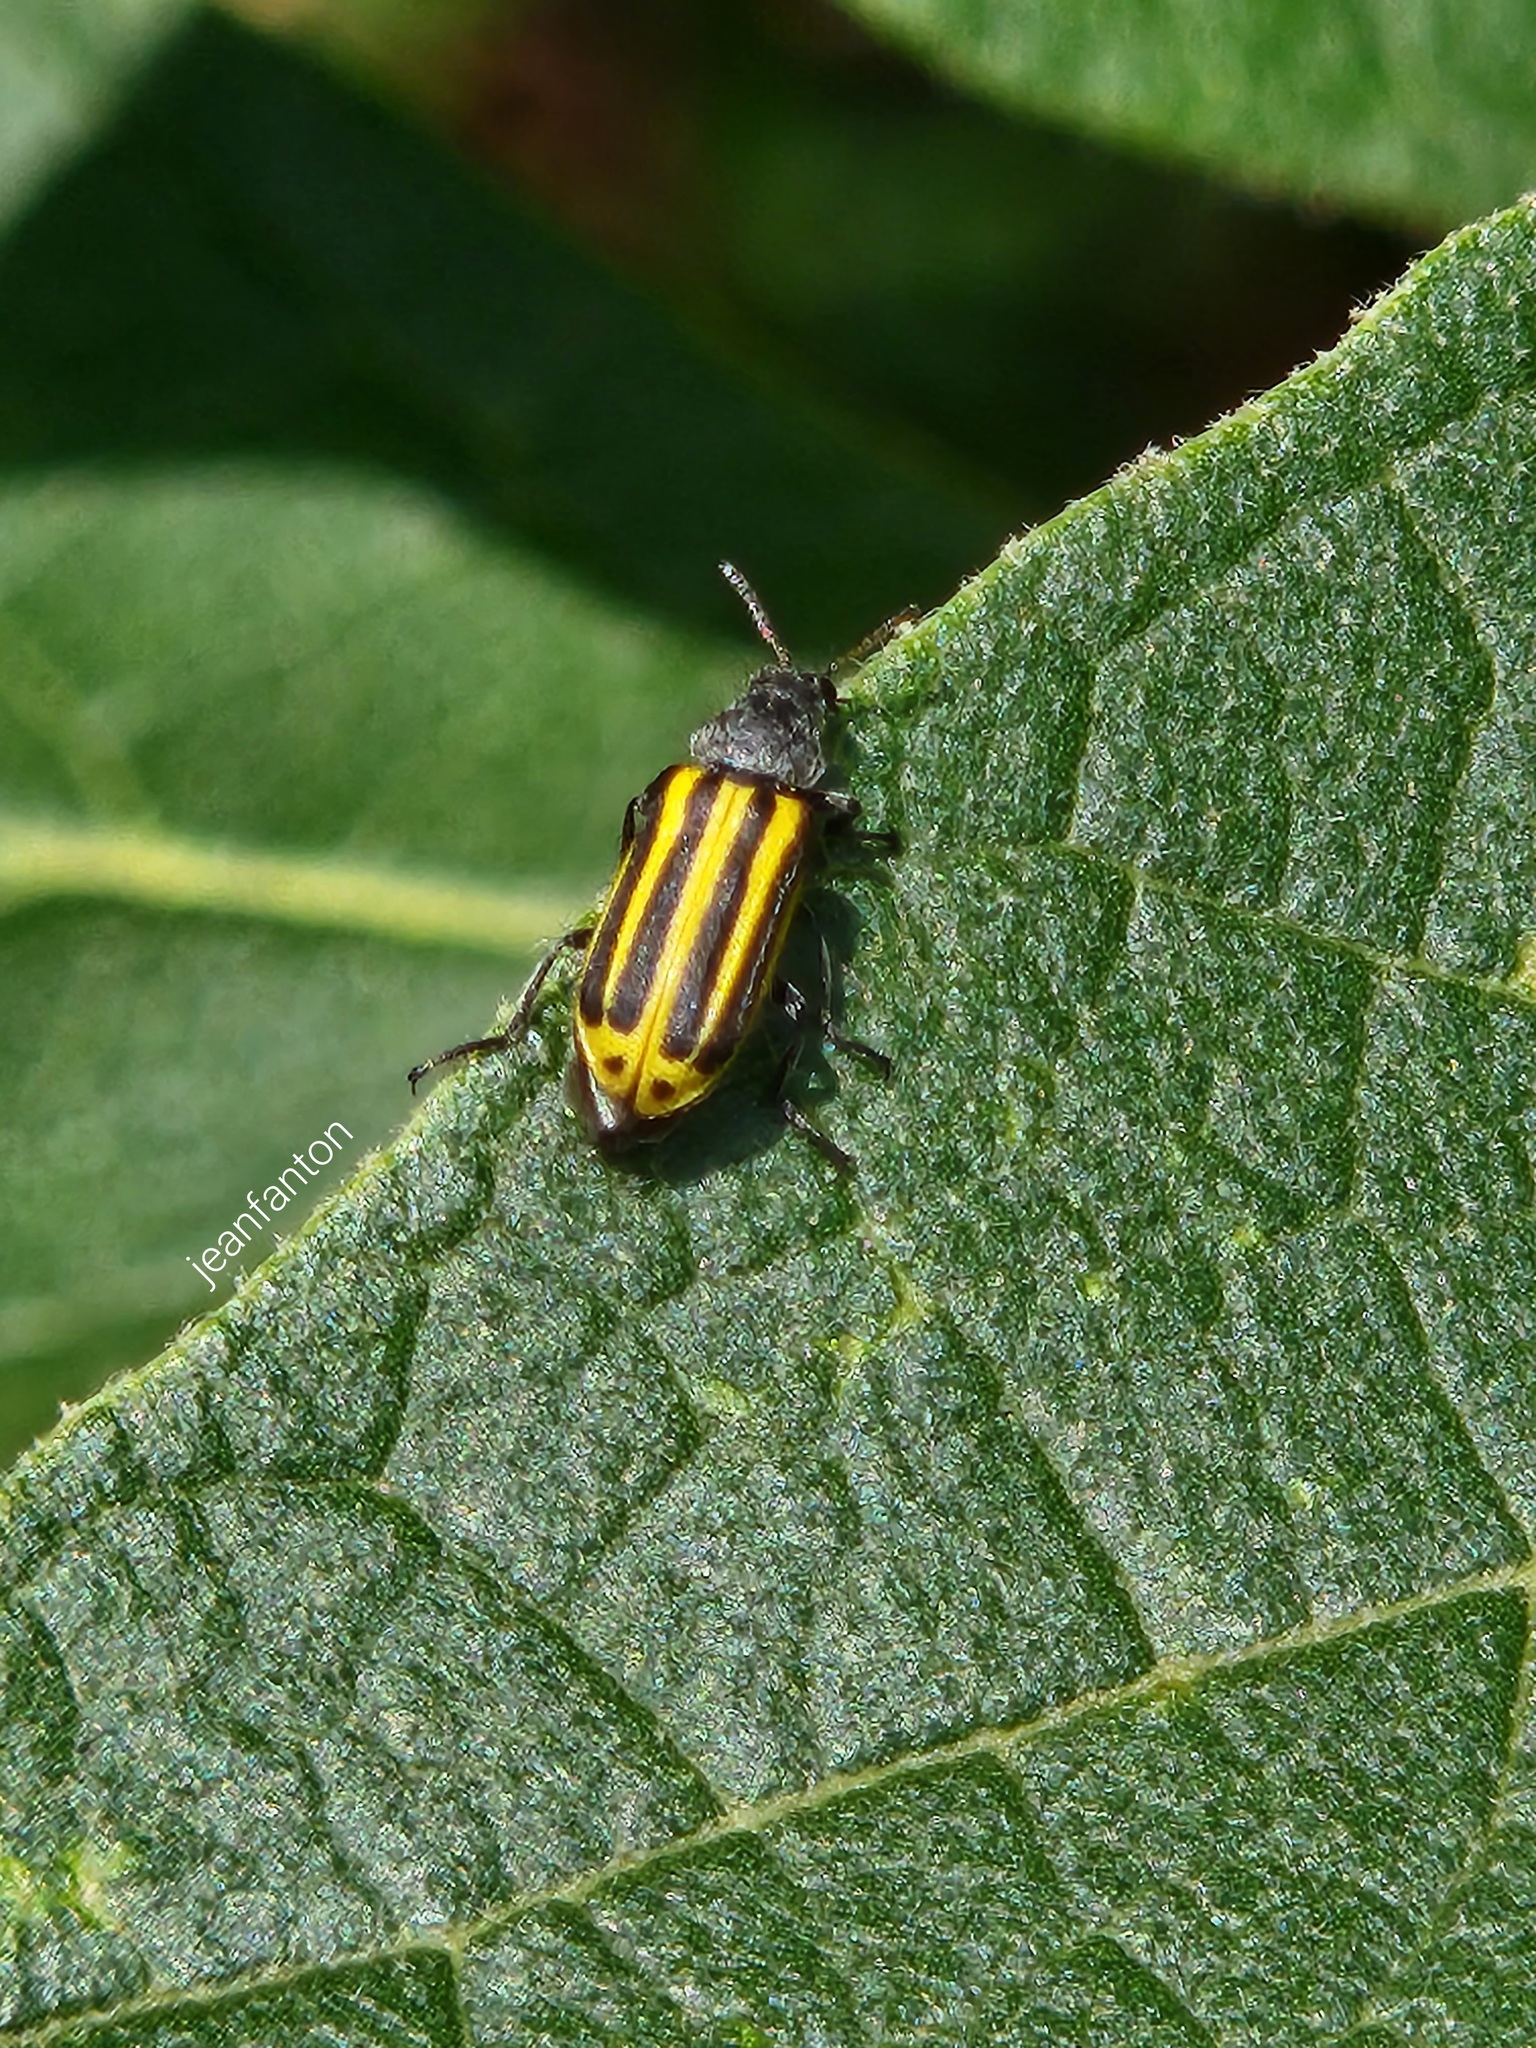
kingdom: Animalia
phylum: Arthropoda
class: Insecta
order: Coleoptera
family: Melyridae
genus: Astylus
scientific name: Astylus
